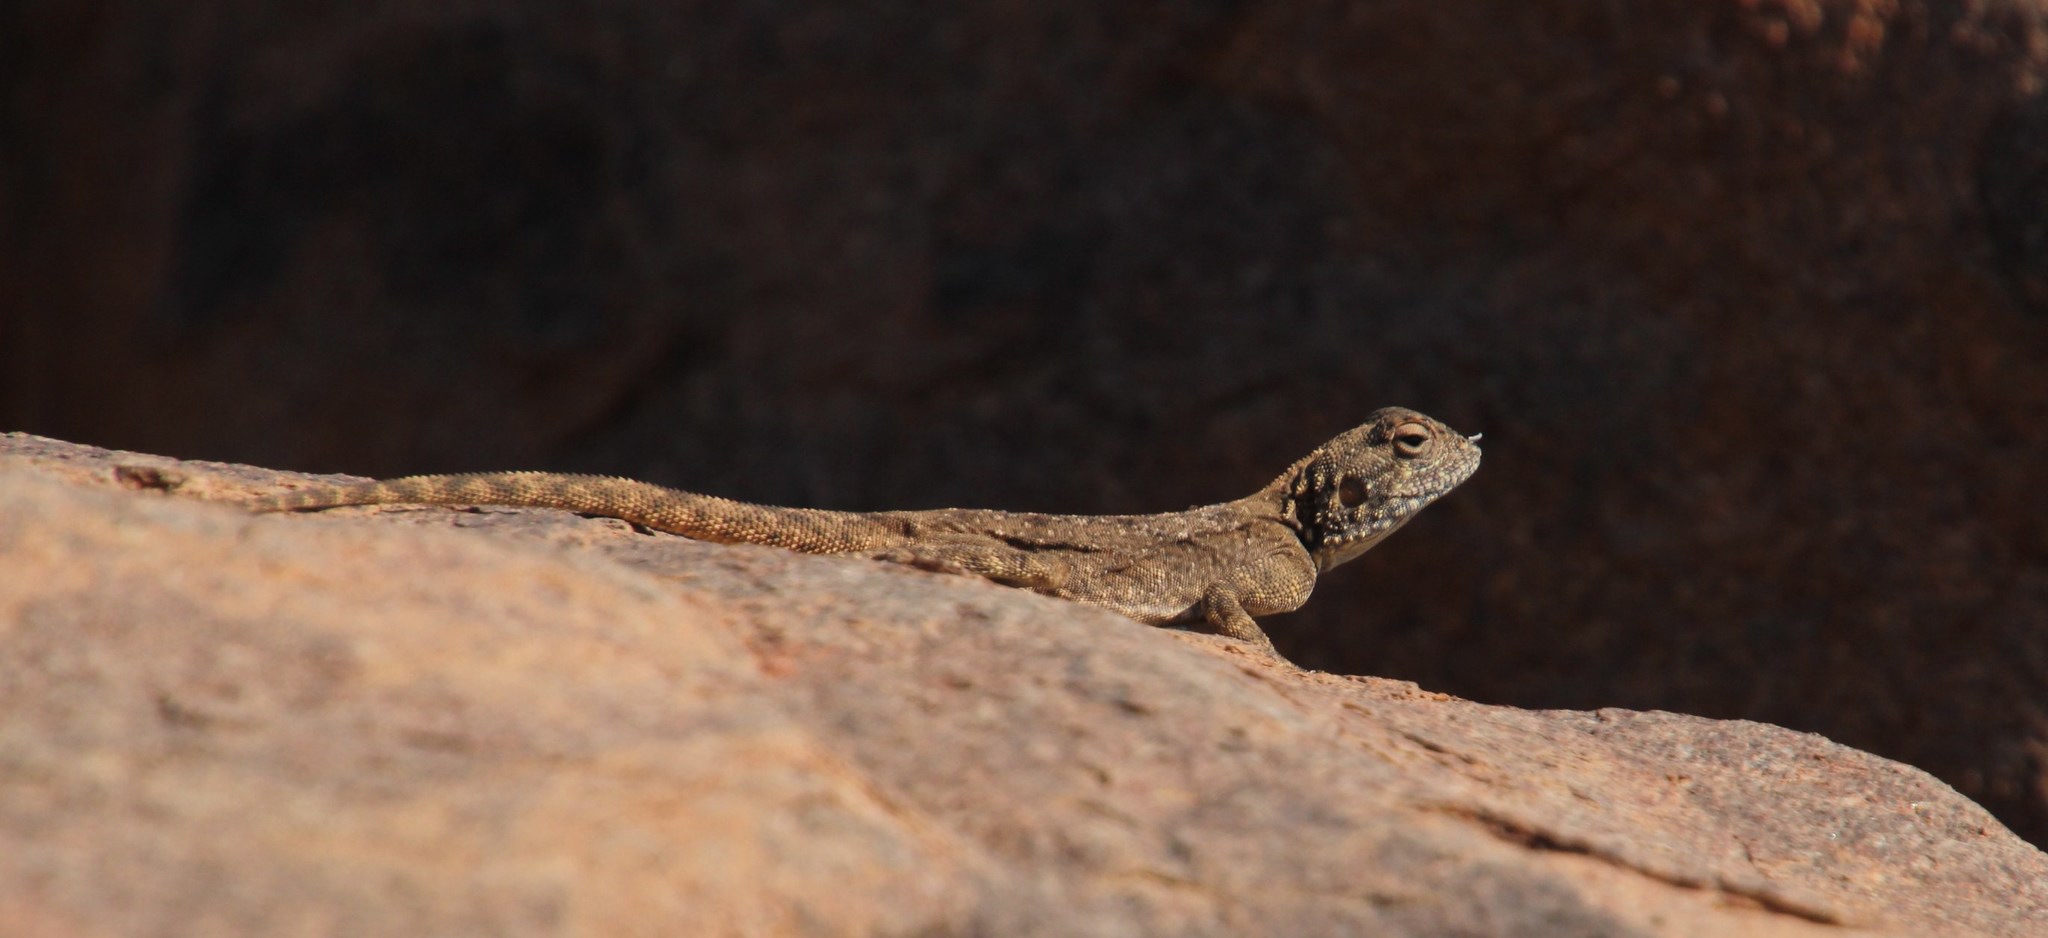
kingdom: Animalia
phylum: Chordata
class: Squamata
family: Agamidae
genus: Agama
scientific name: Agama atra
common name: Southern african rock agama
